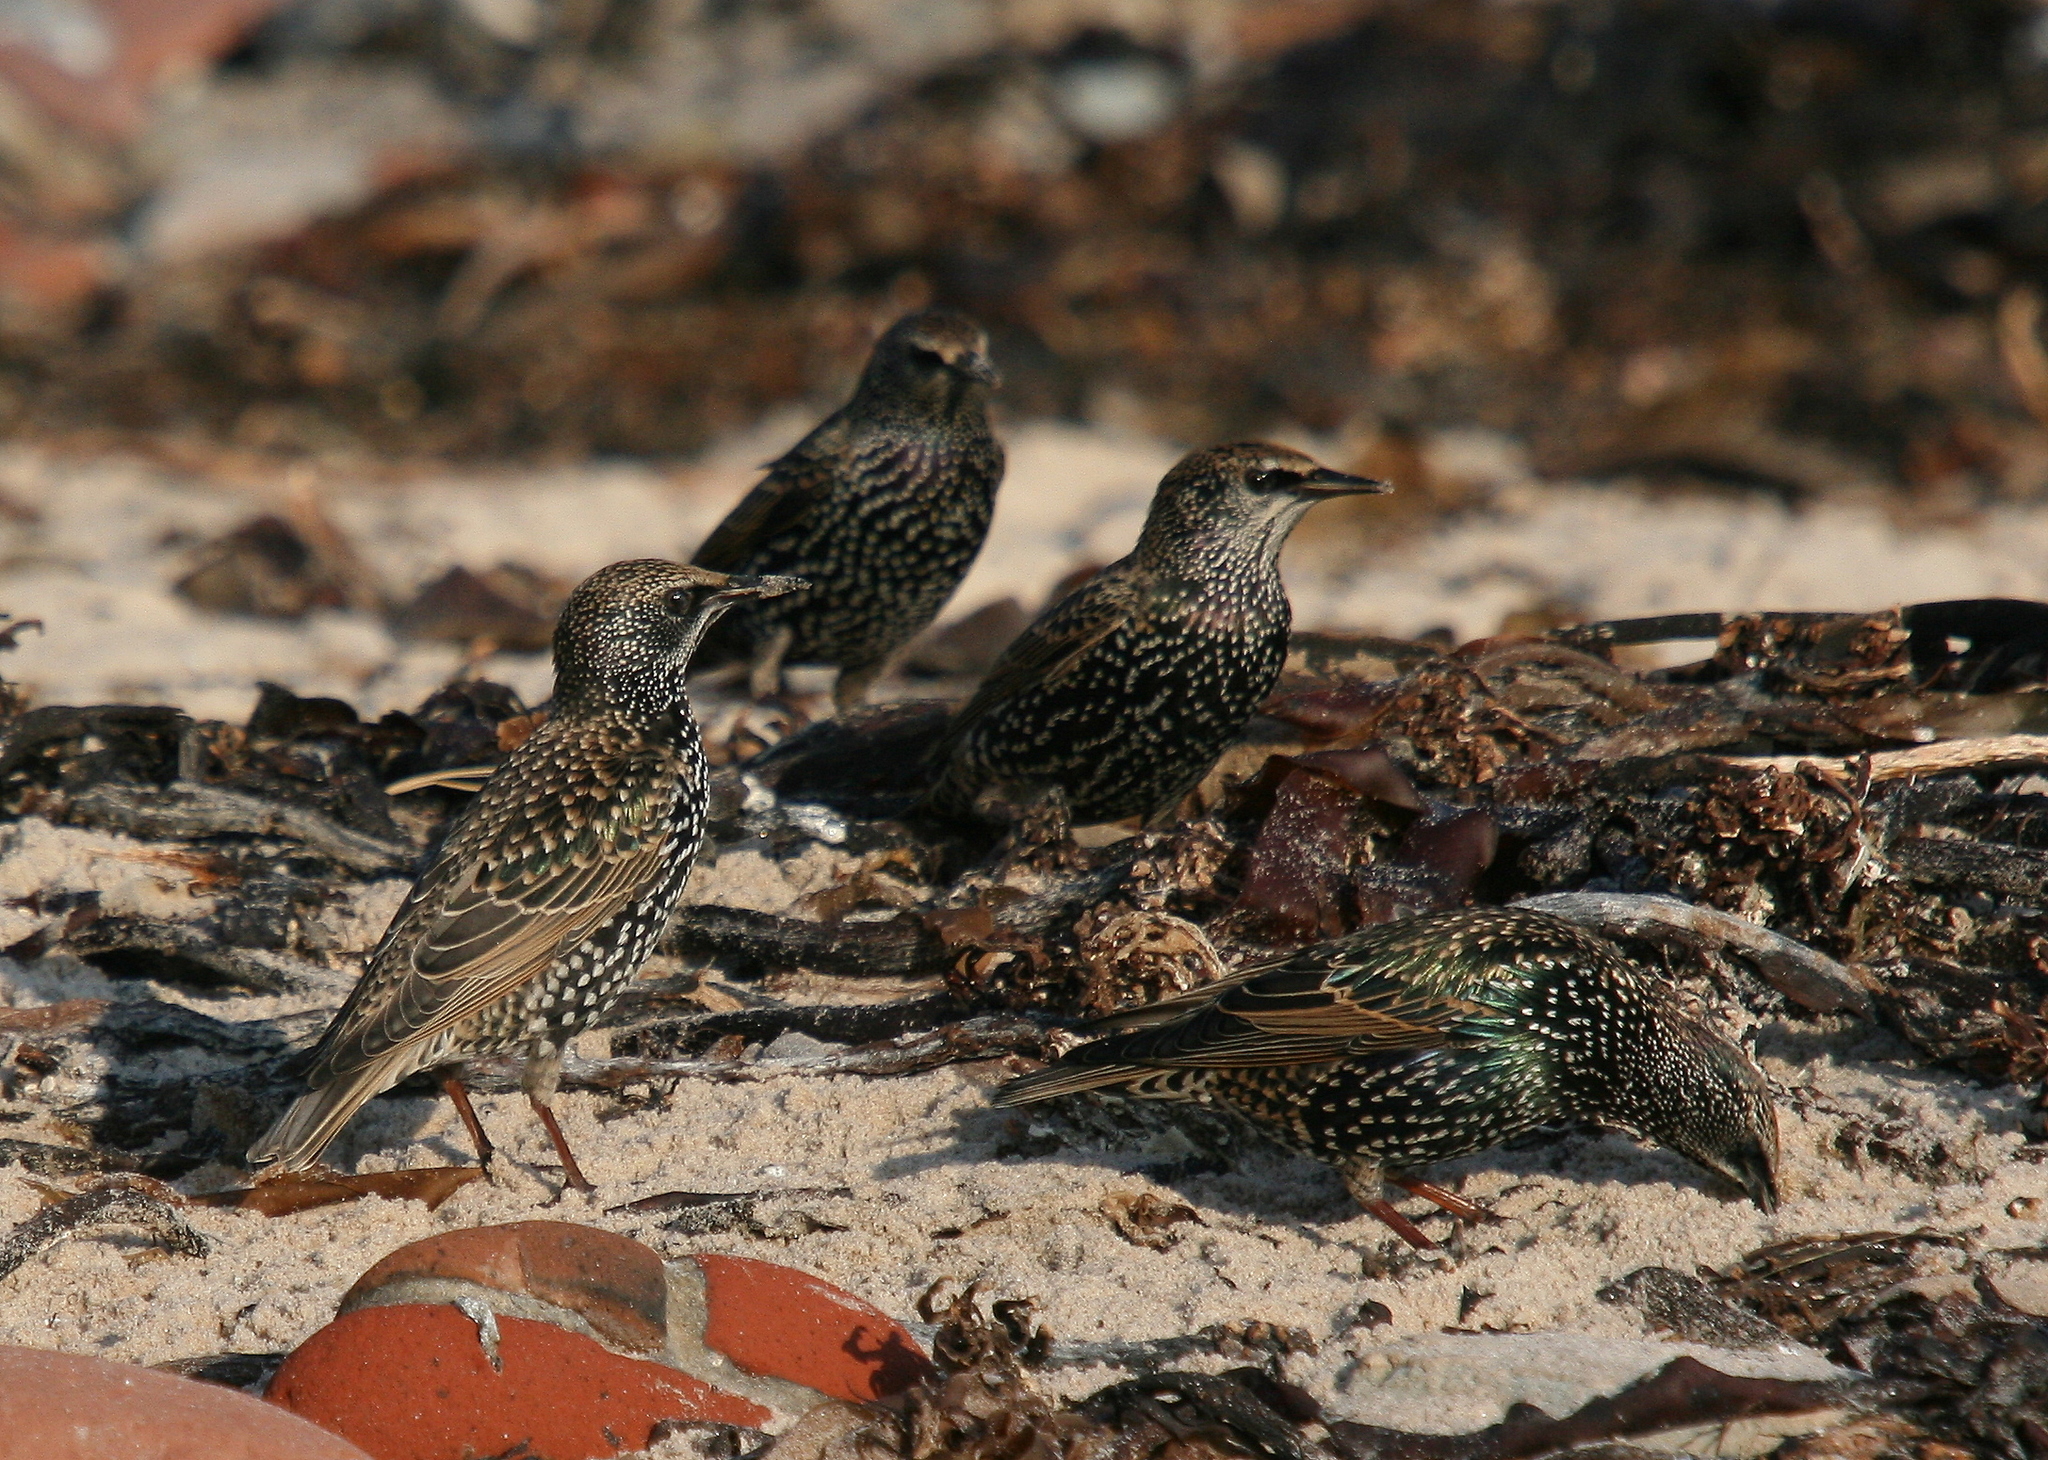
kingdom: Animalia
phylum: Chordata
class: Aves
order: Passeriformes
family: Sturnidae
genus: Sturnus
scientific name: Sturnus vulgaris
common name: Common starling
